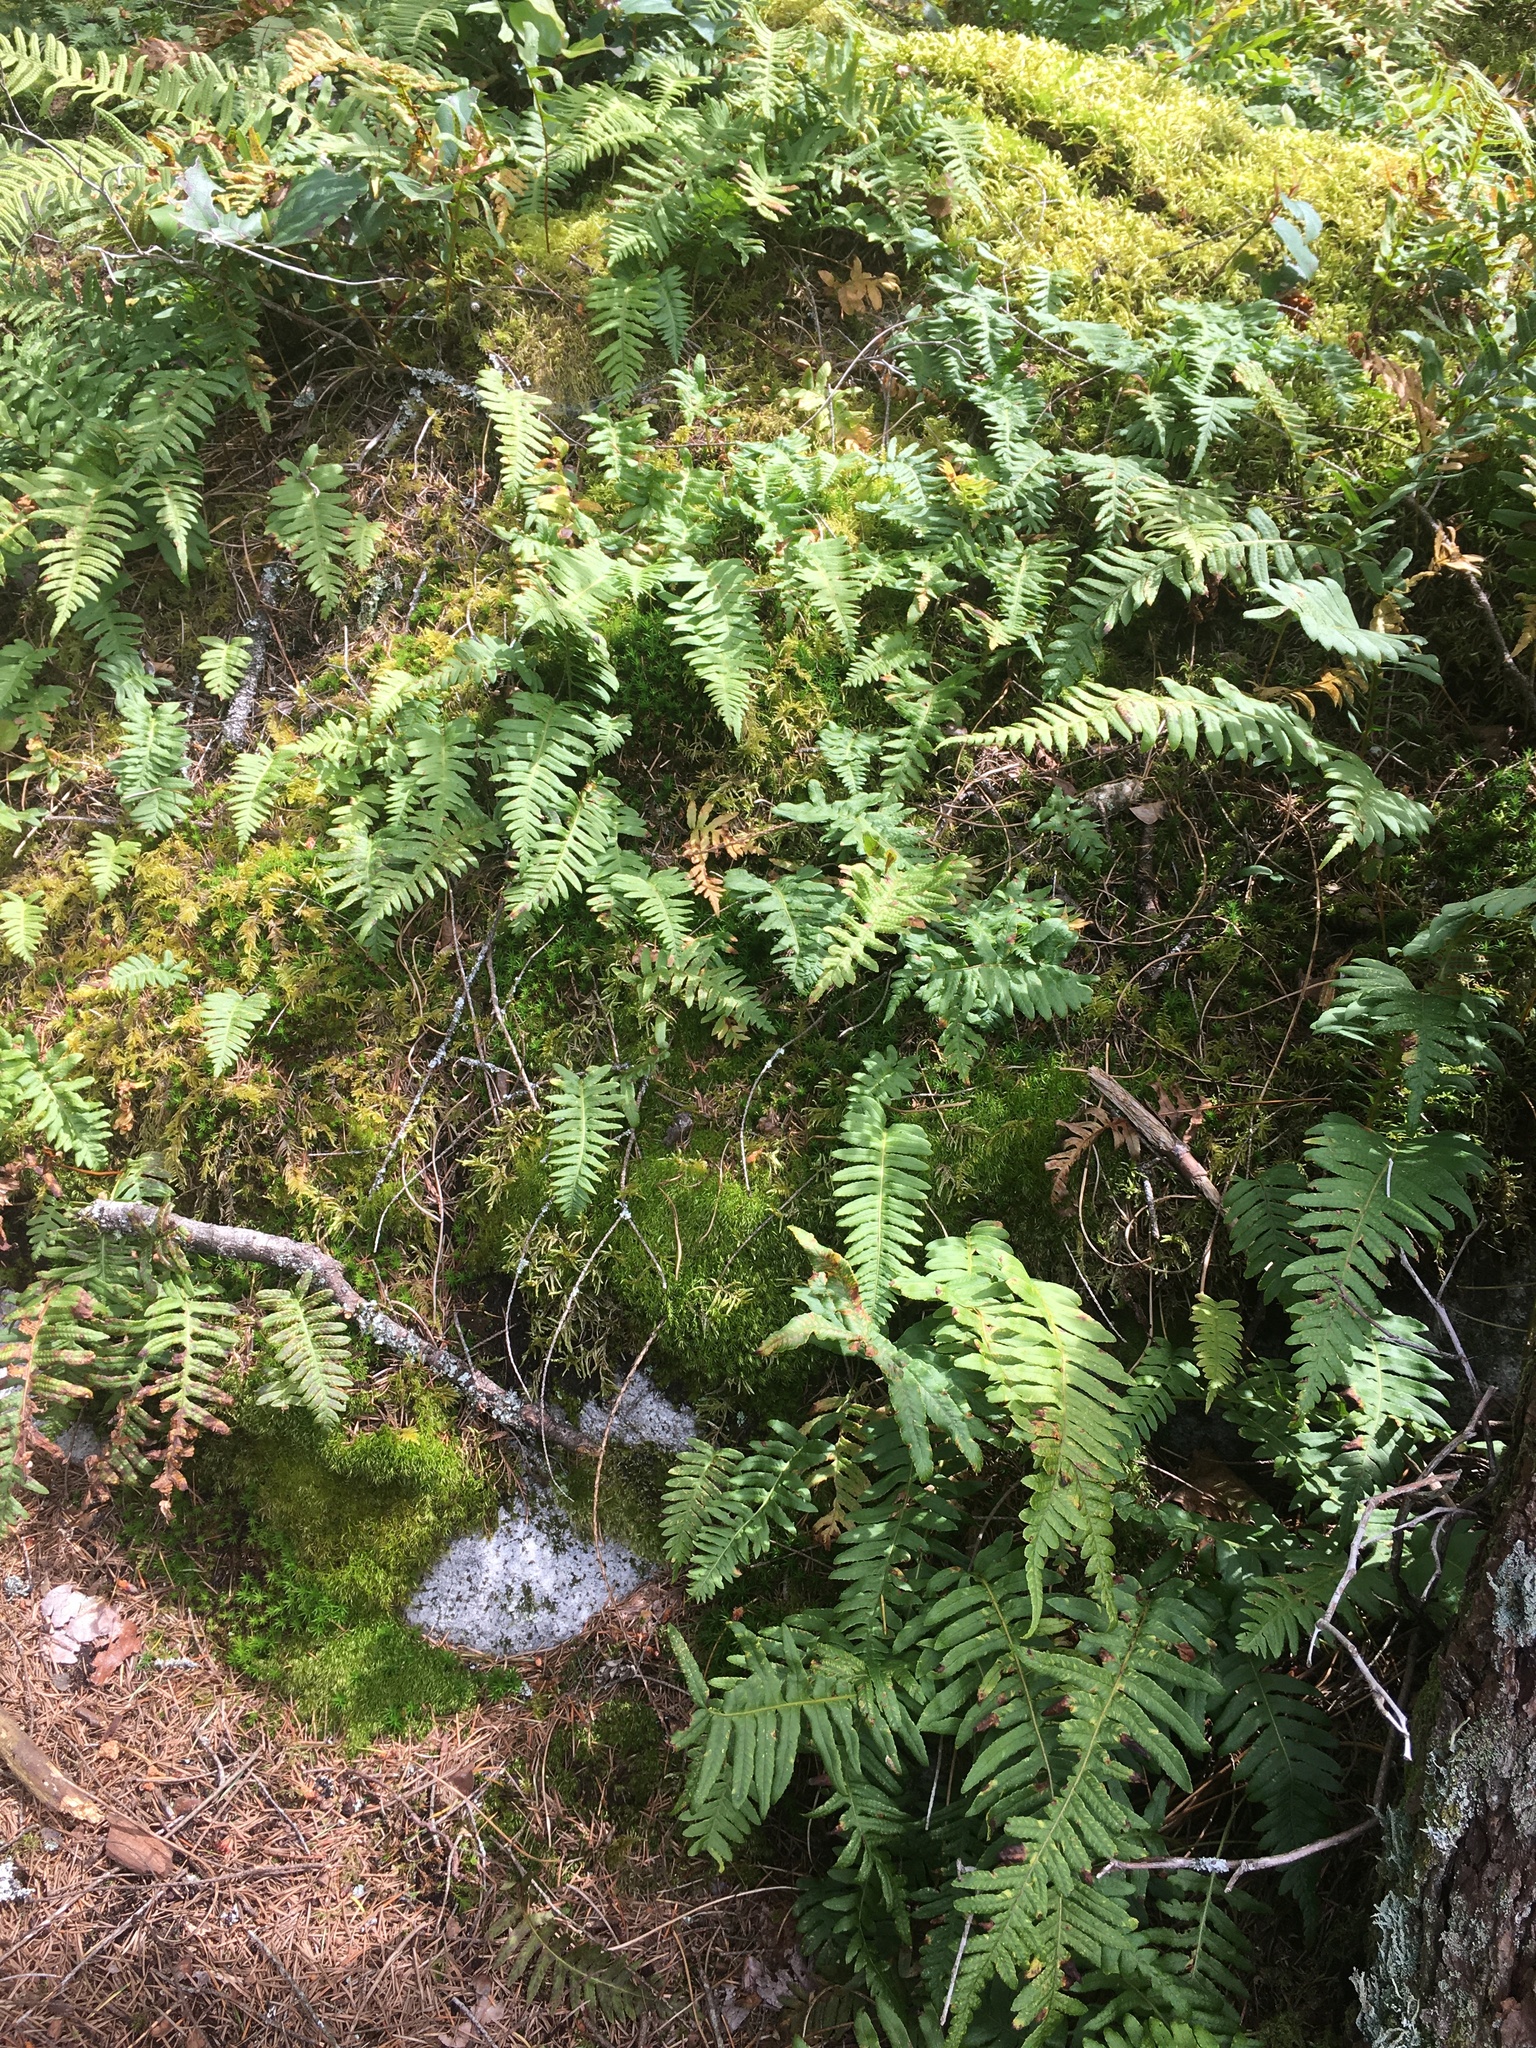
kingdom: Plantae
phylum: Tracheophyta
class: Polypodiopsida
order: Polypodiales
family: Polypodiaceae
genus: Polypodium
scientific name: Polypodium glycyrrhiza
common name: Licorice fern
